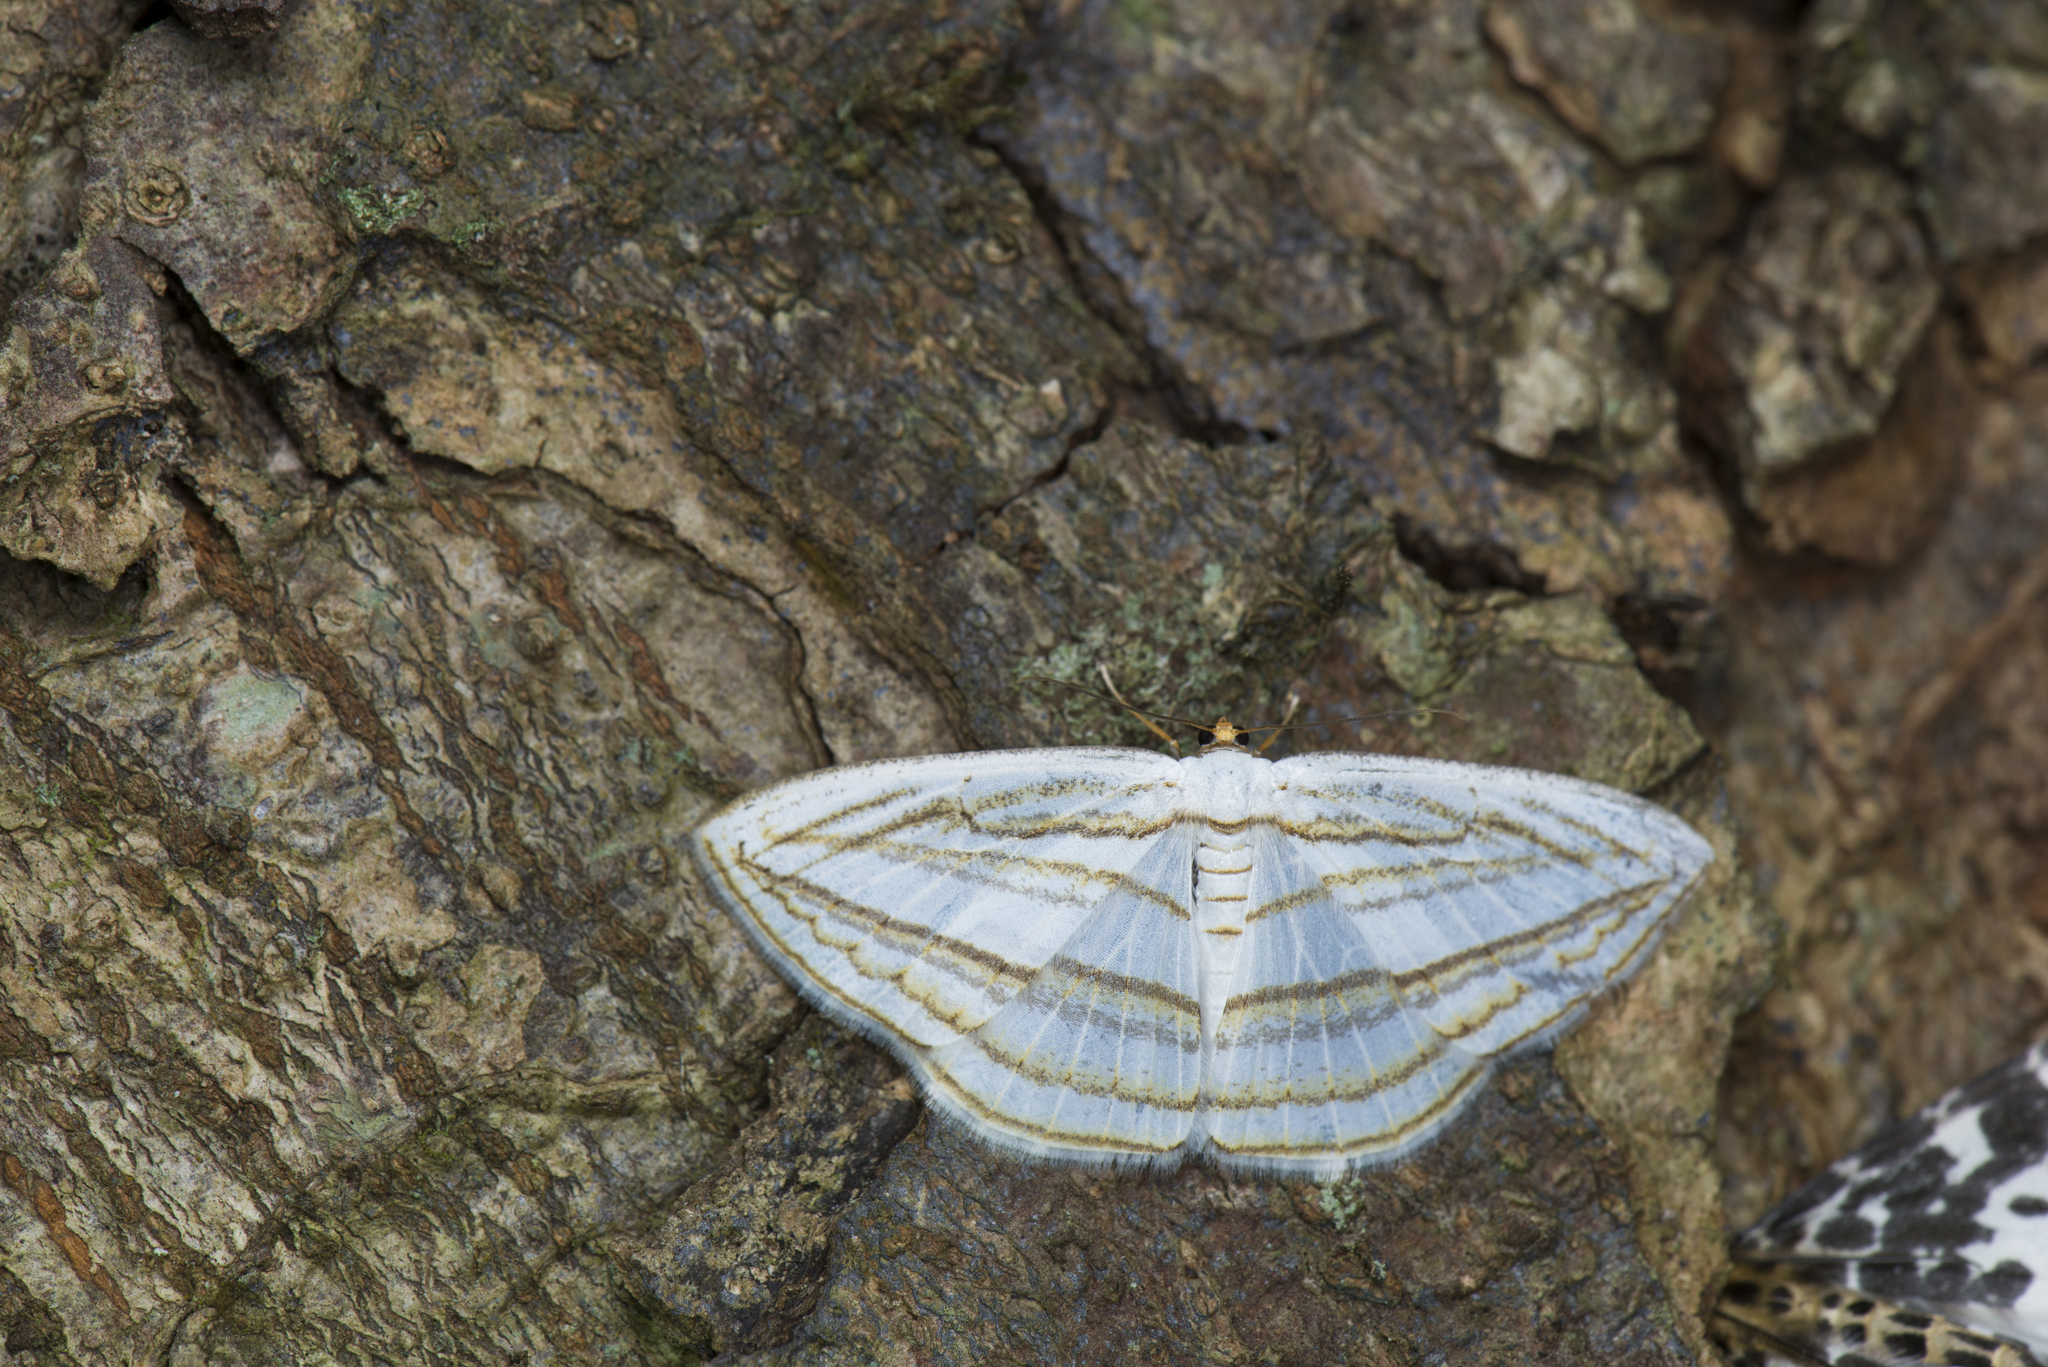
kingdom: Animalia
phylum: Arthropoda
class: Insecta
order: Lepidoptera
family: Geometridae
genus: Orthocabera
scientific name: Orthocabera sericea
